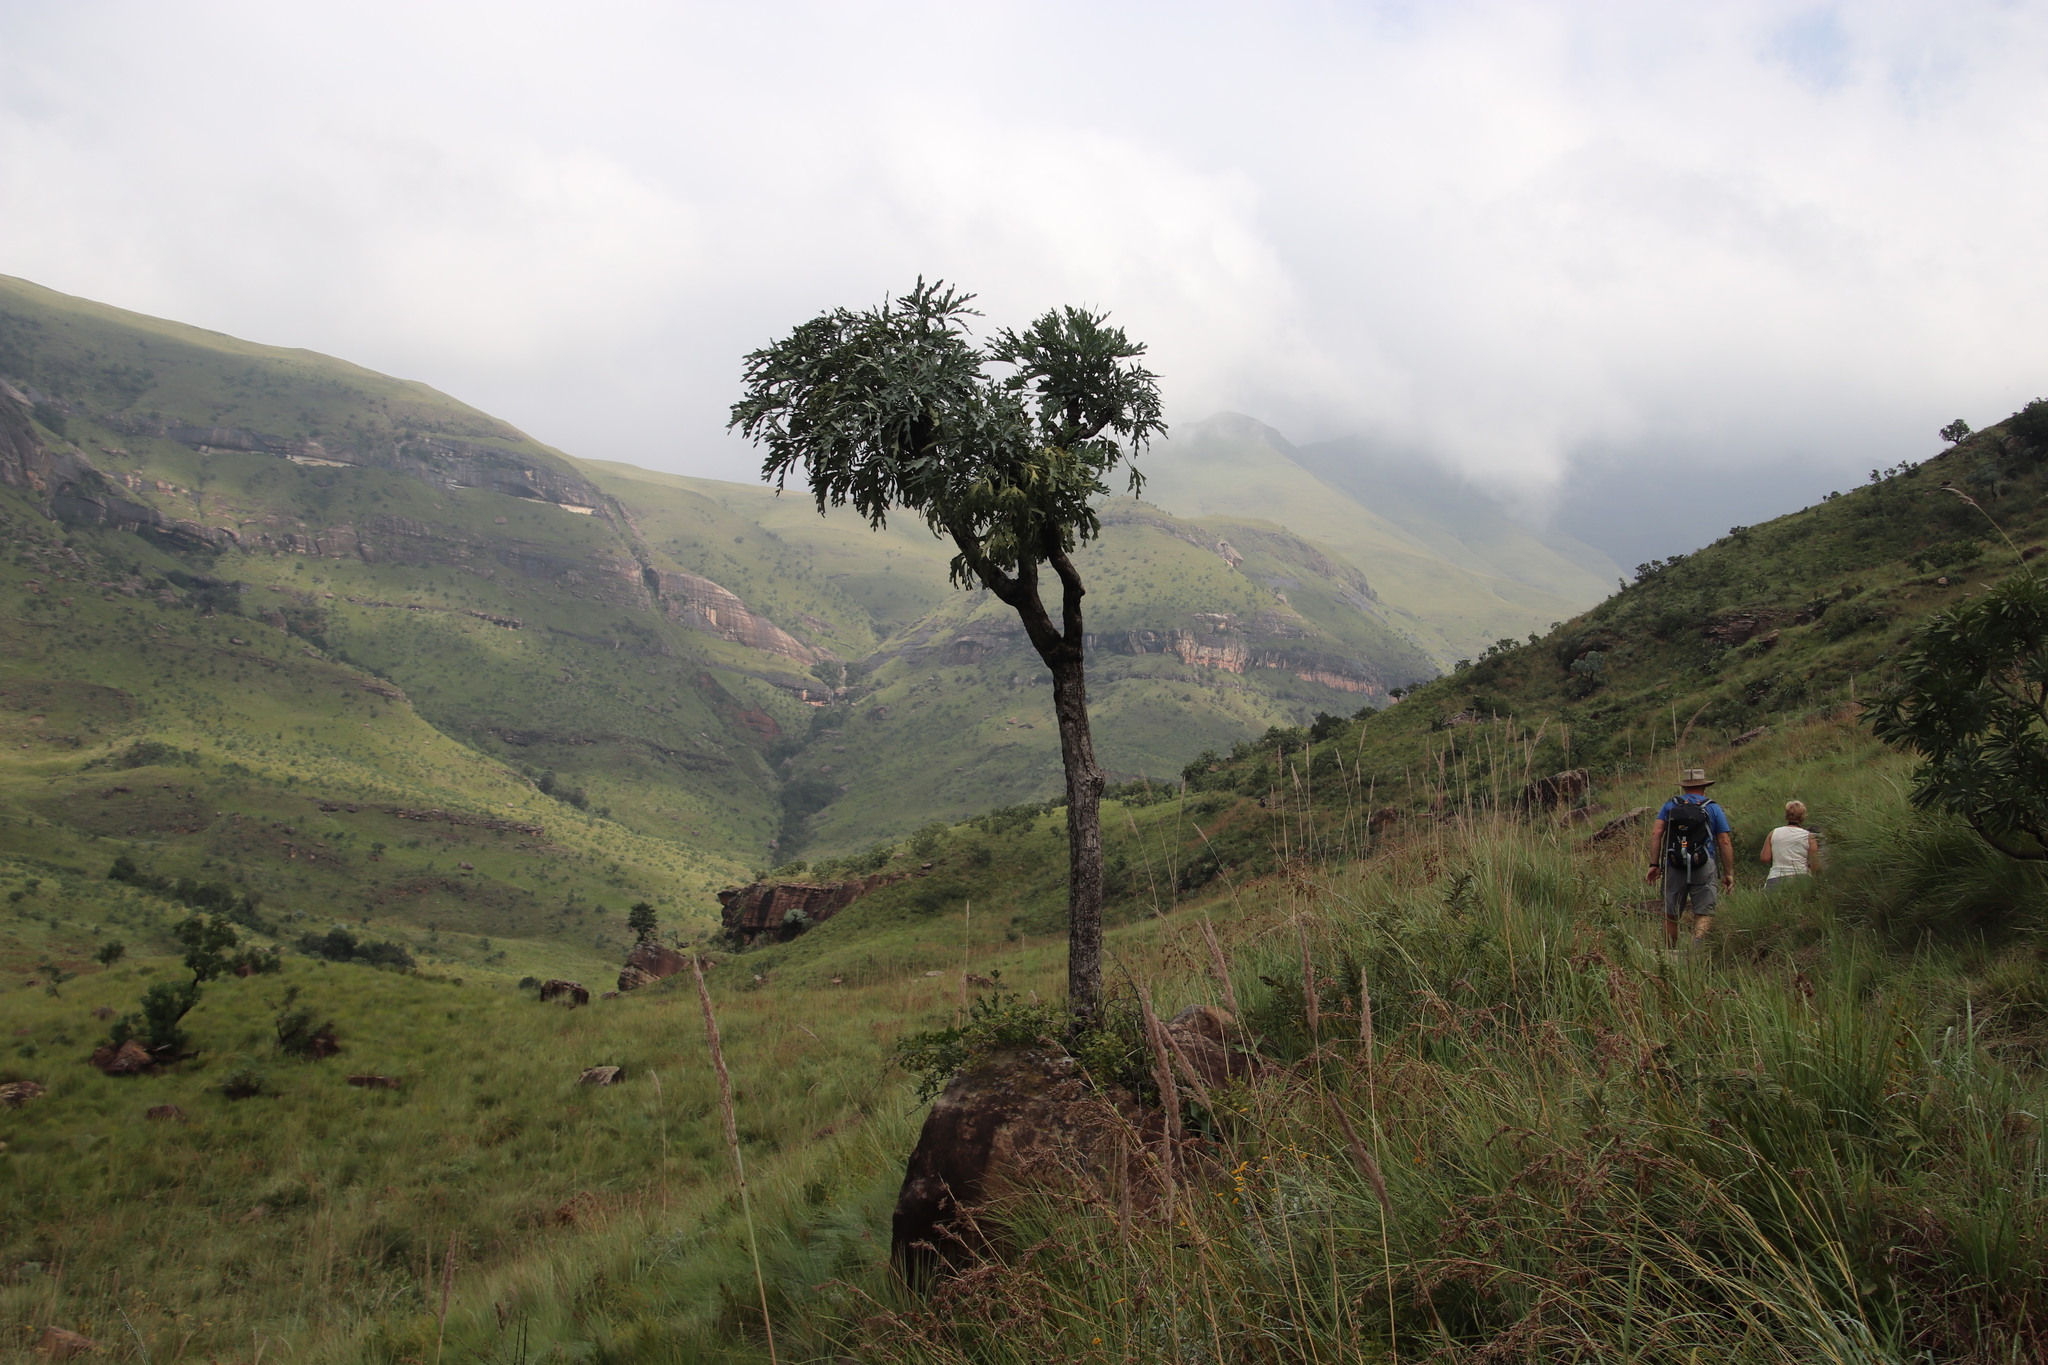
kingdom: Plantae
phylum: Tracheophyta
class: Magnoliopsida
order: Apiales
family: Araliaceae
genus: Cussonia
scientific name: Cussonia paniculata
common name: Cabbagetree
